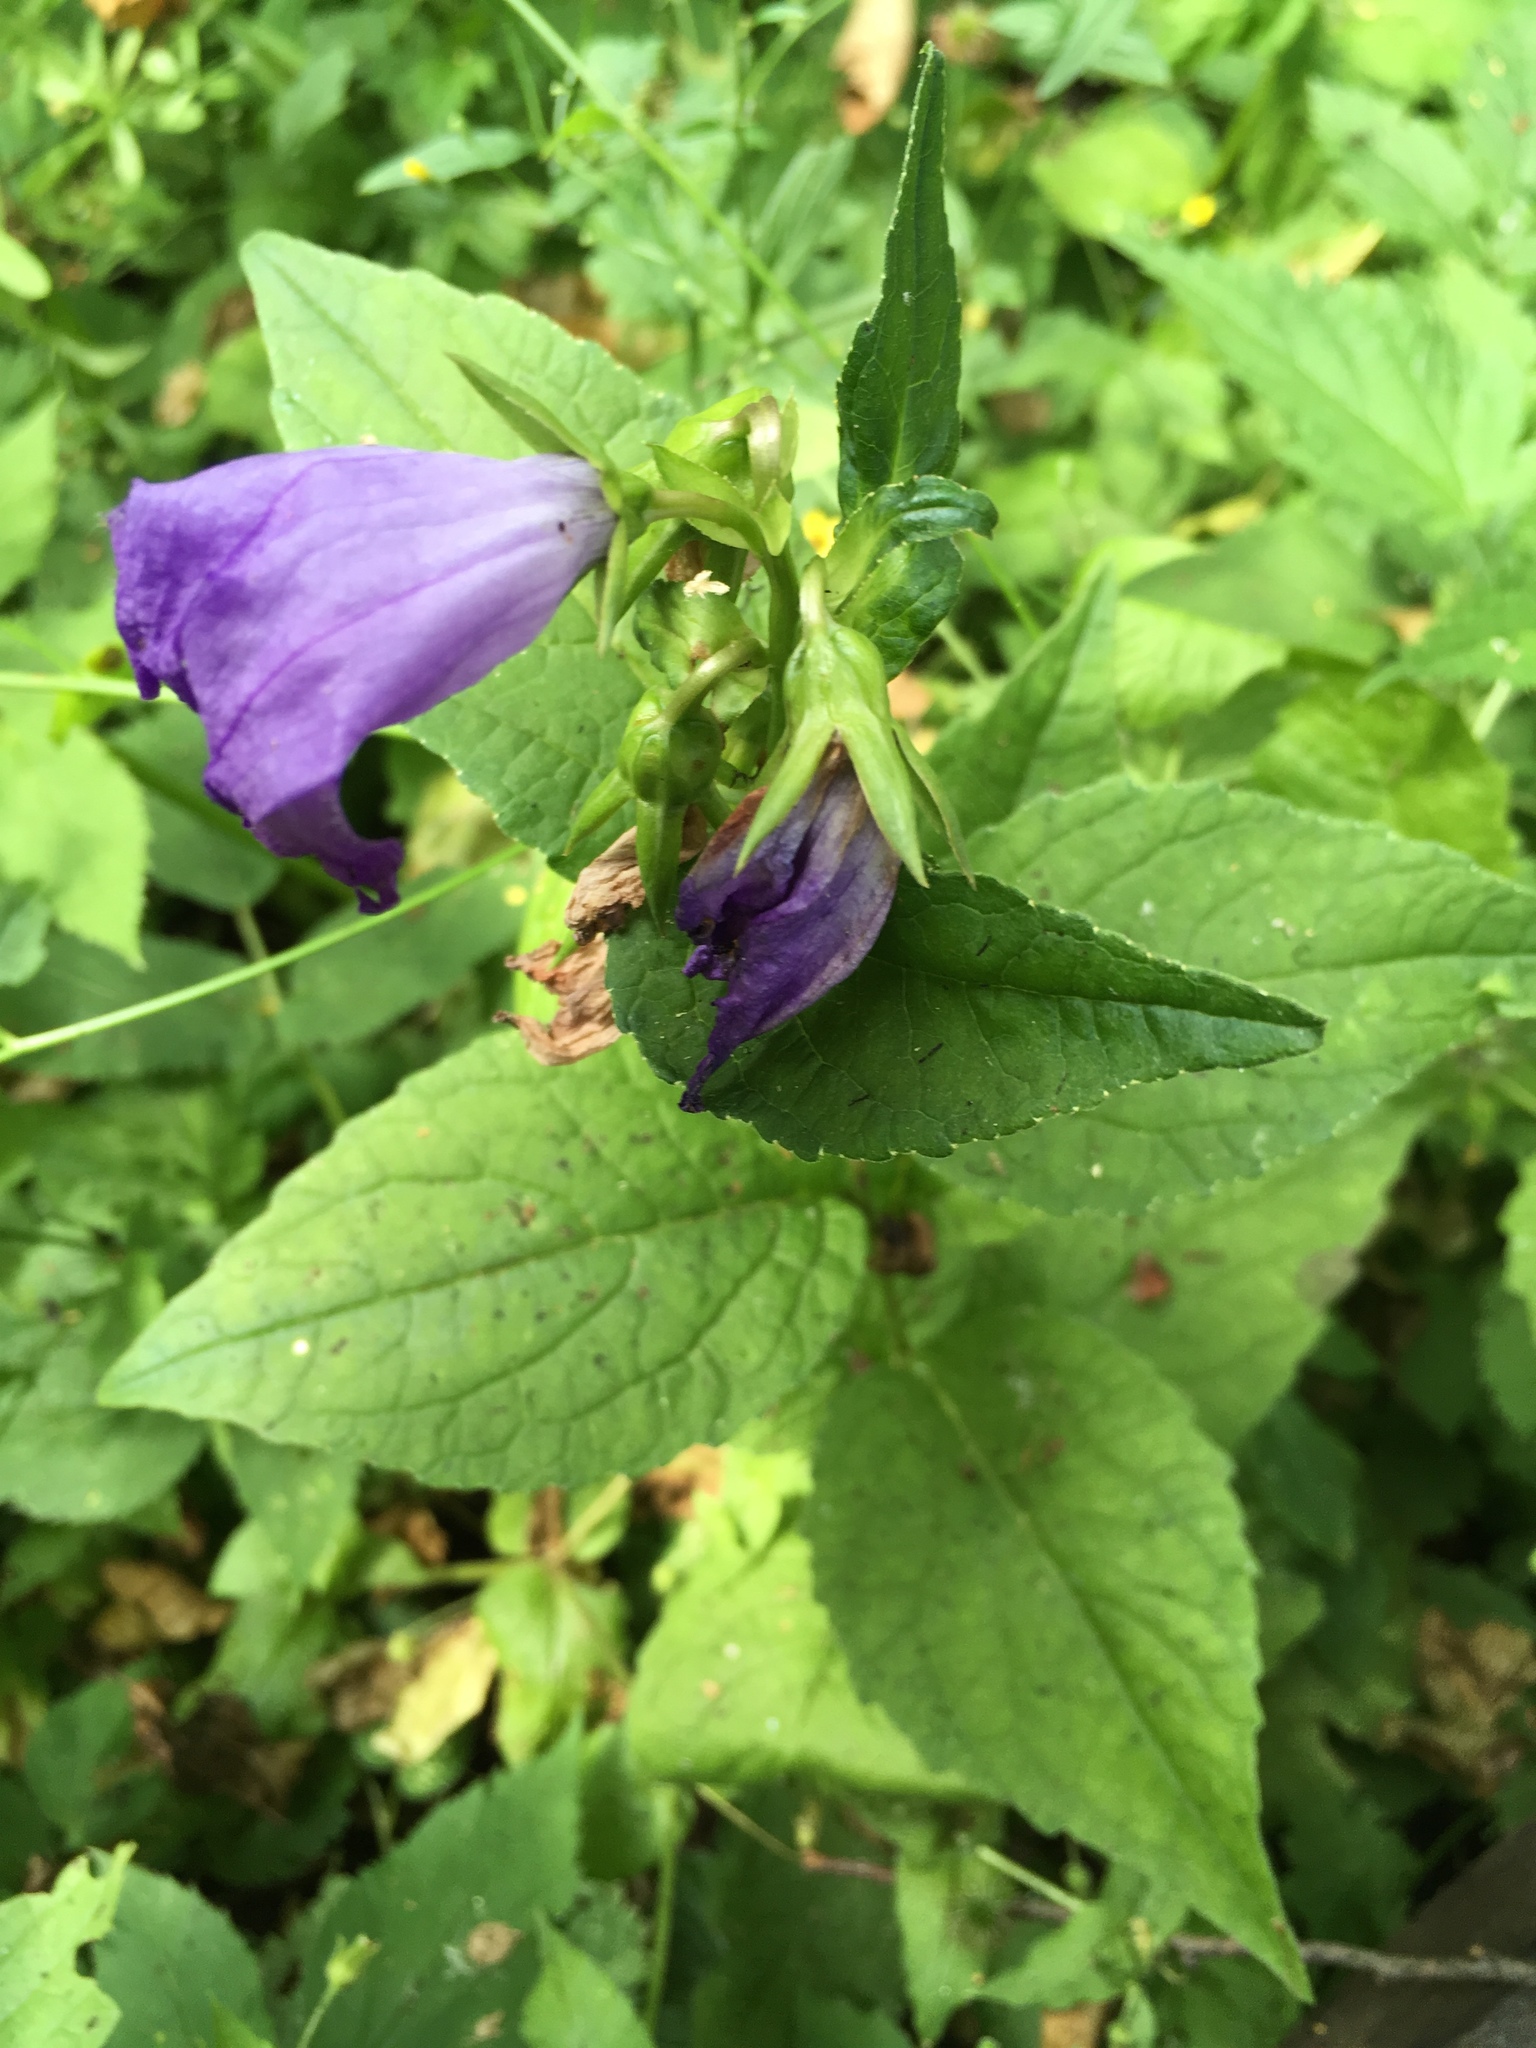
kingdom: Plantae
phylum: Tracheophyta
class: Magnoliopsida
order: Asterales
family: Campanulaceae
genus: Campanula
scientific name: Campanula latifolia
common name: Giant bellflower
